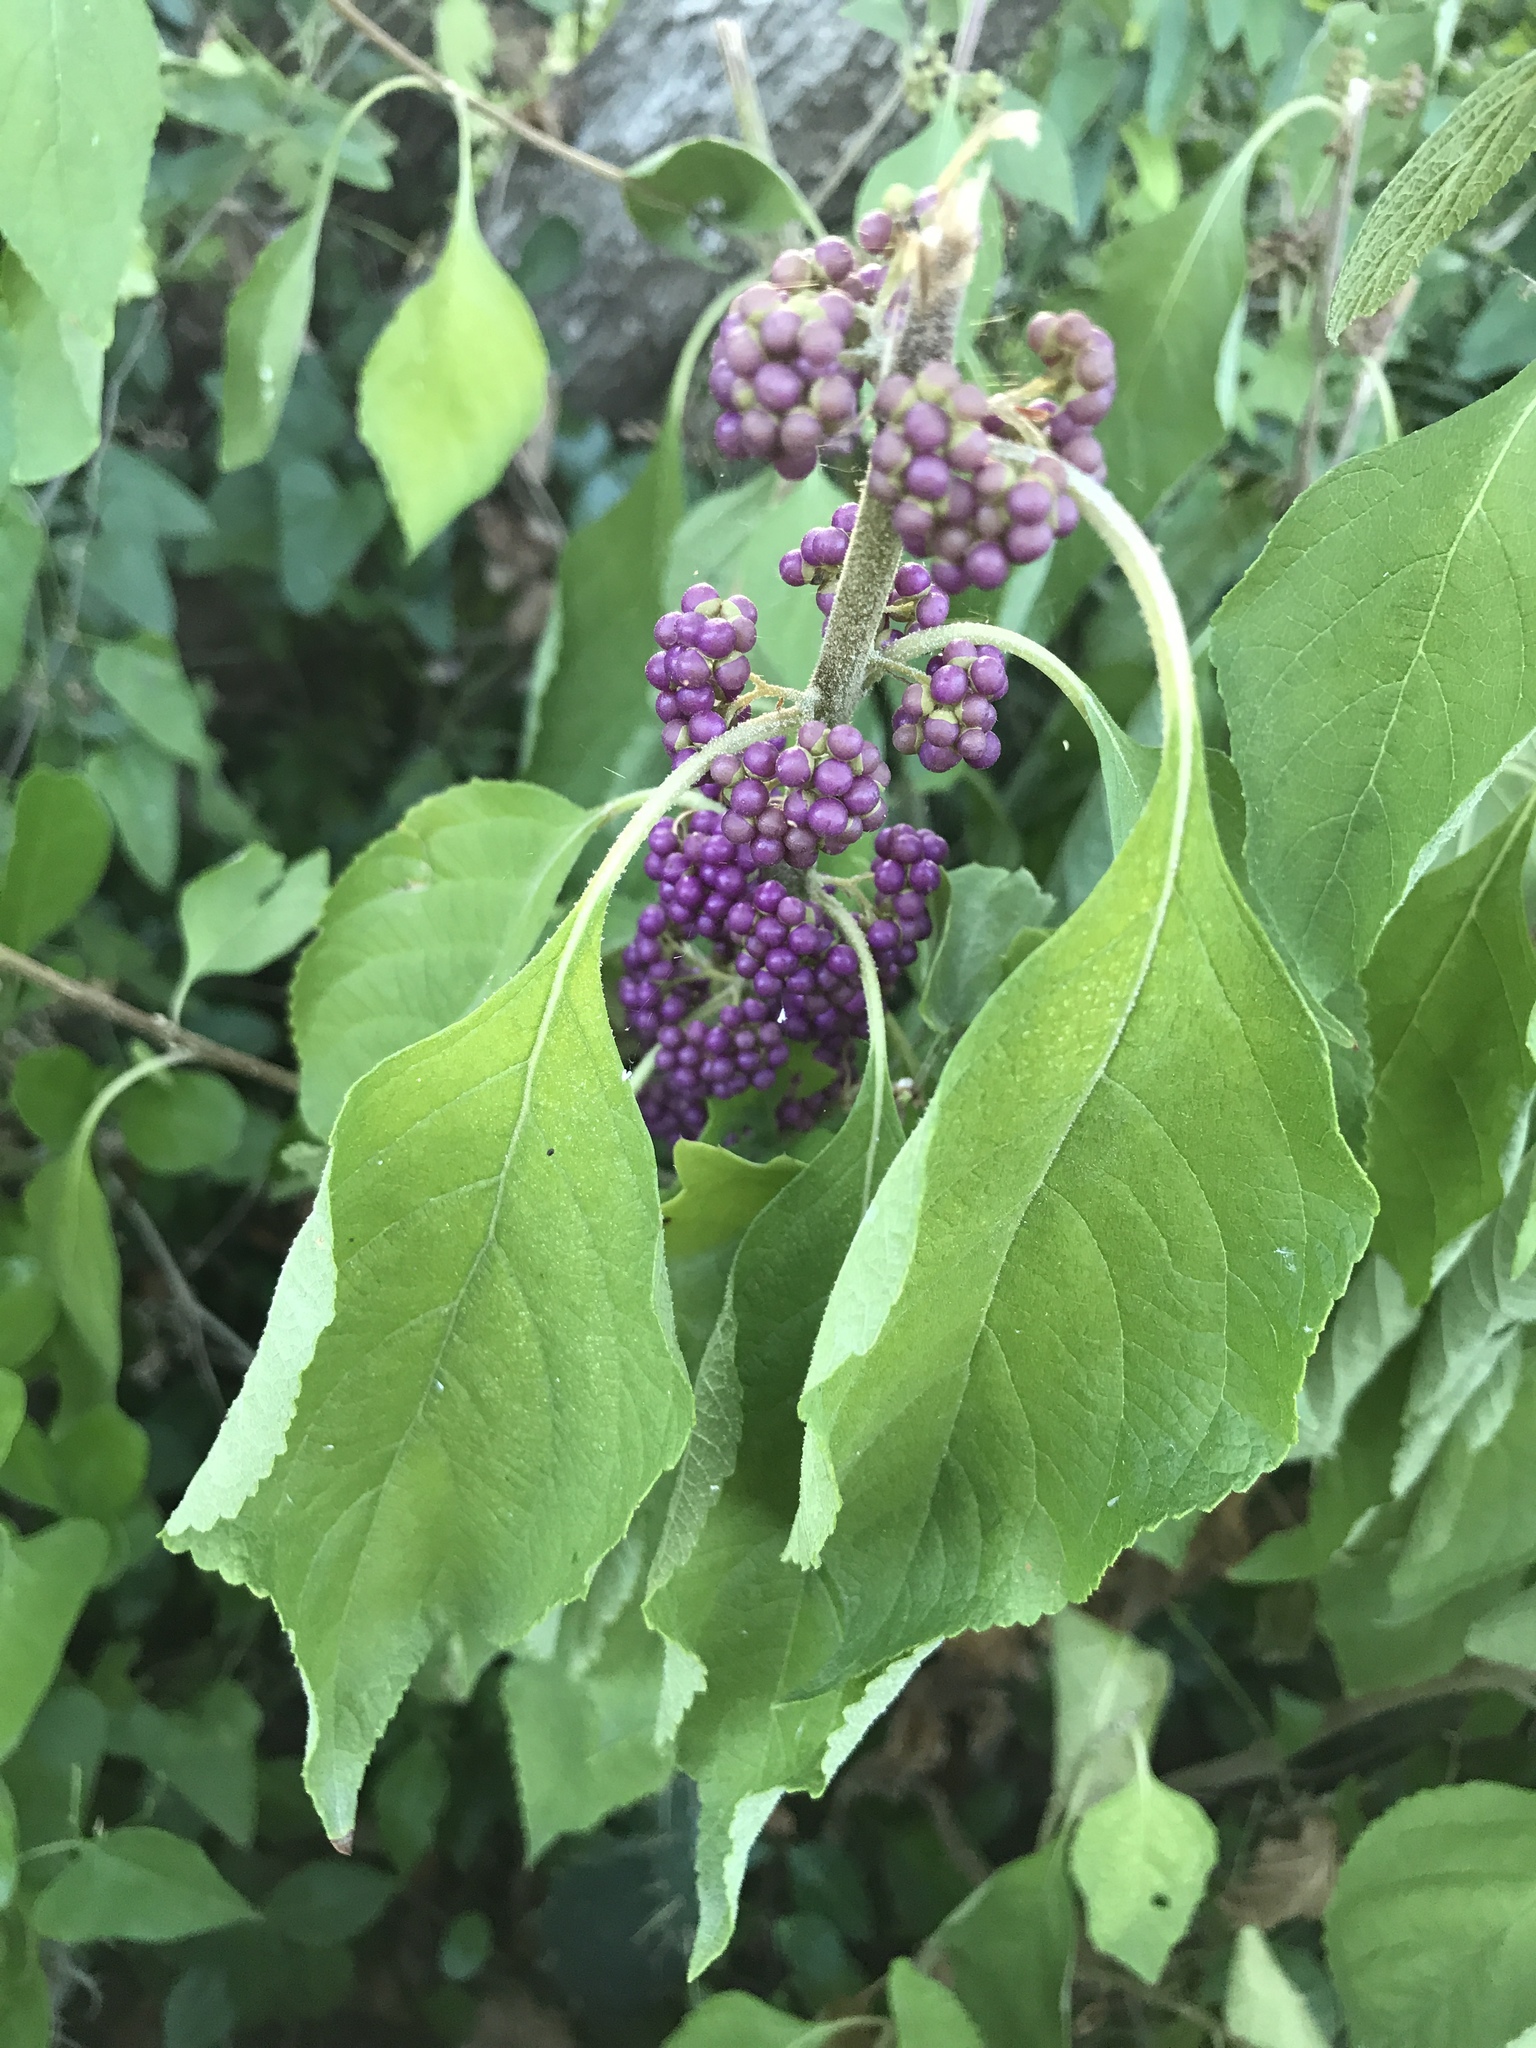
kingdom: Plantae
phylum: Tracheophyta
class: Magnoliopsida
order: Lamiales
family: Lamiaceae
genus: Callicarpa
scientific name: Callicarpa americana
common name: American beautyberry
